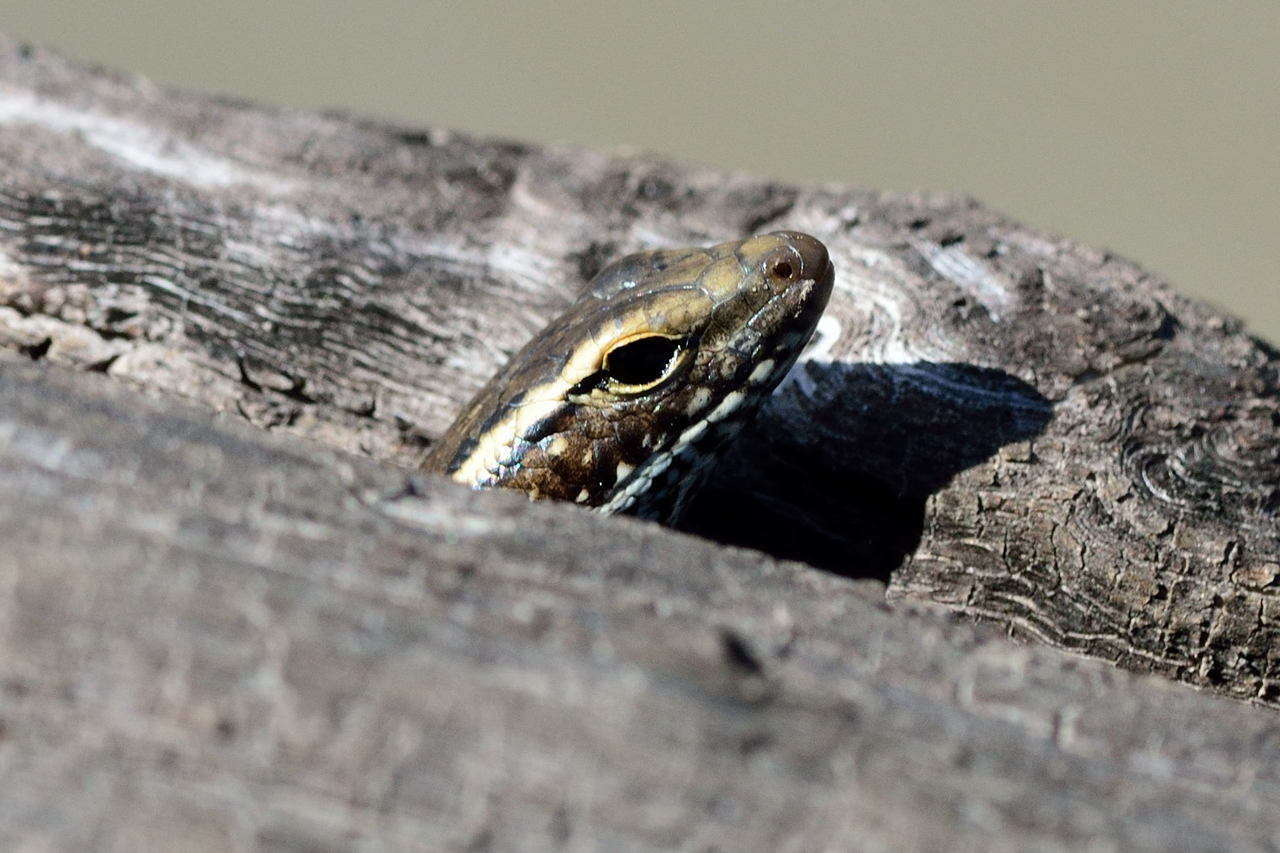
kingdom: Animalia
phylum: Chordata
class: Squamata
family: Scincidae
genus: Eulamprus
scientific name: Eulamprus quoyii
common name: Eastern water skink
